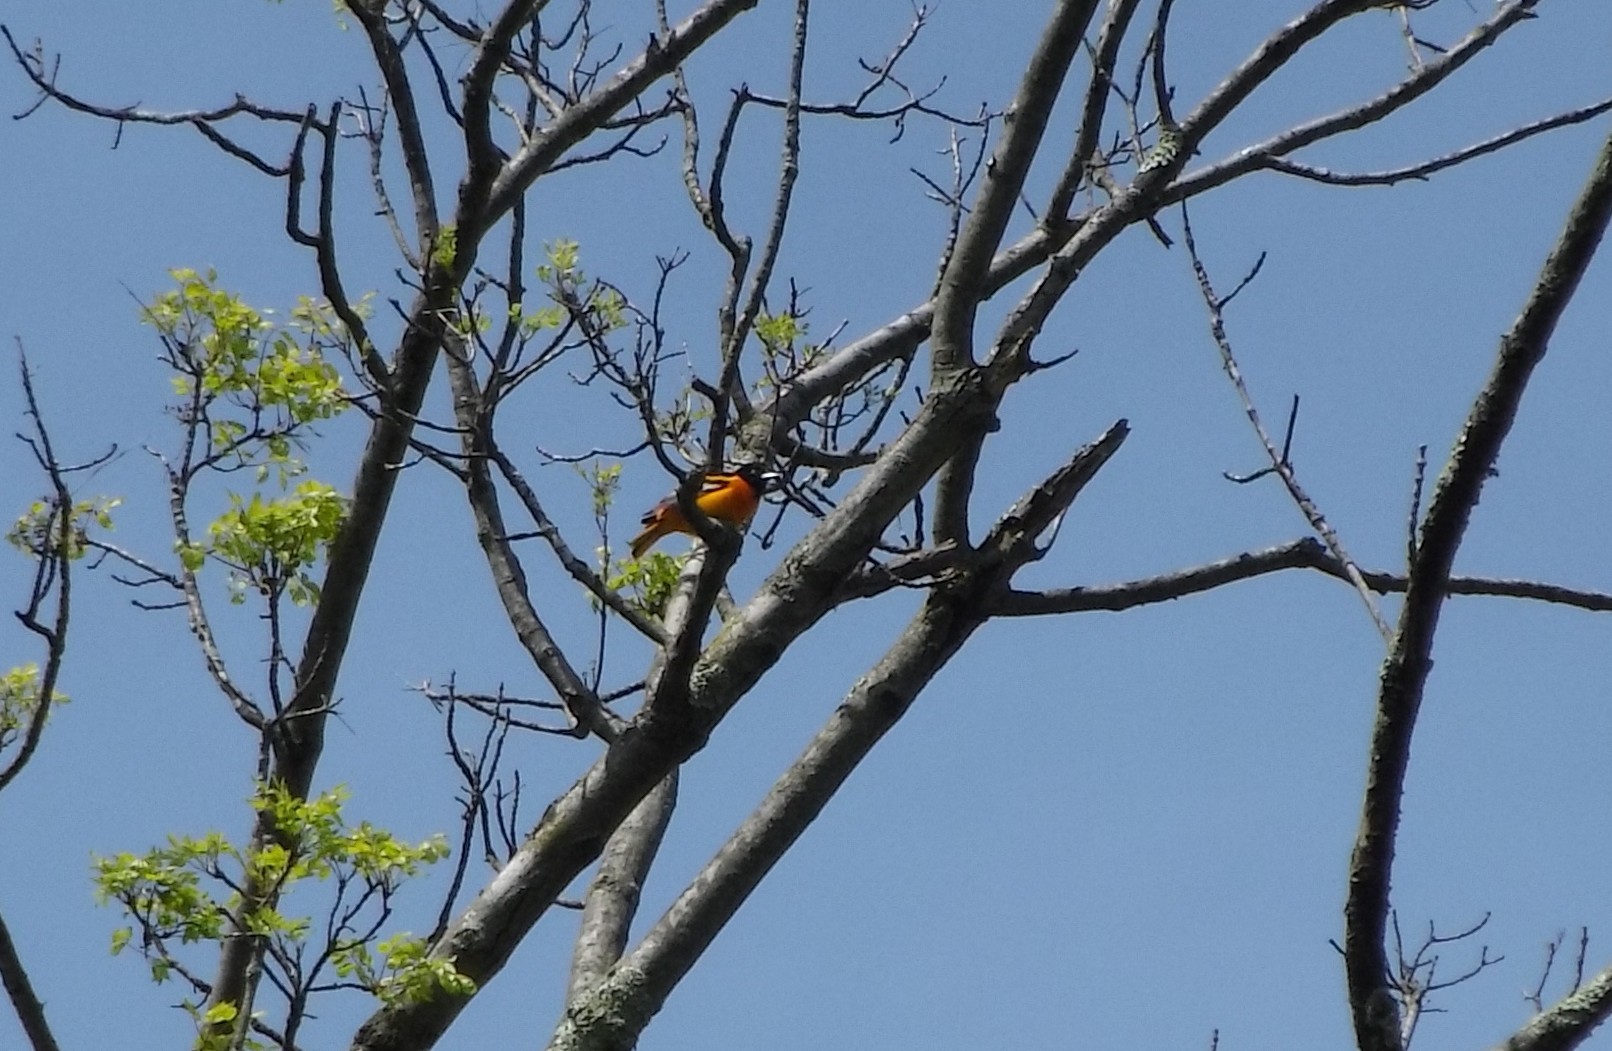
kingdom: Animalia
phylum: Chordata
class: Aves
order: Passeriformes
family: Icteridae
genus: Icterus
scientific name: Icterus galbula
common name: Baltimore oriole
